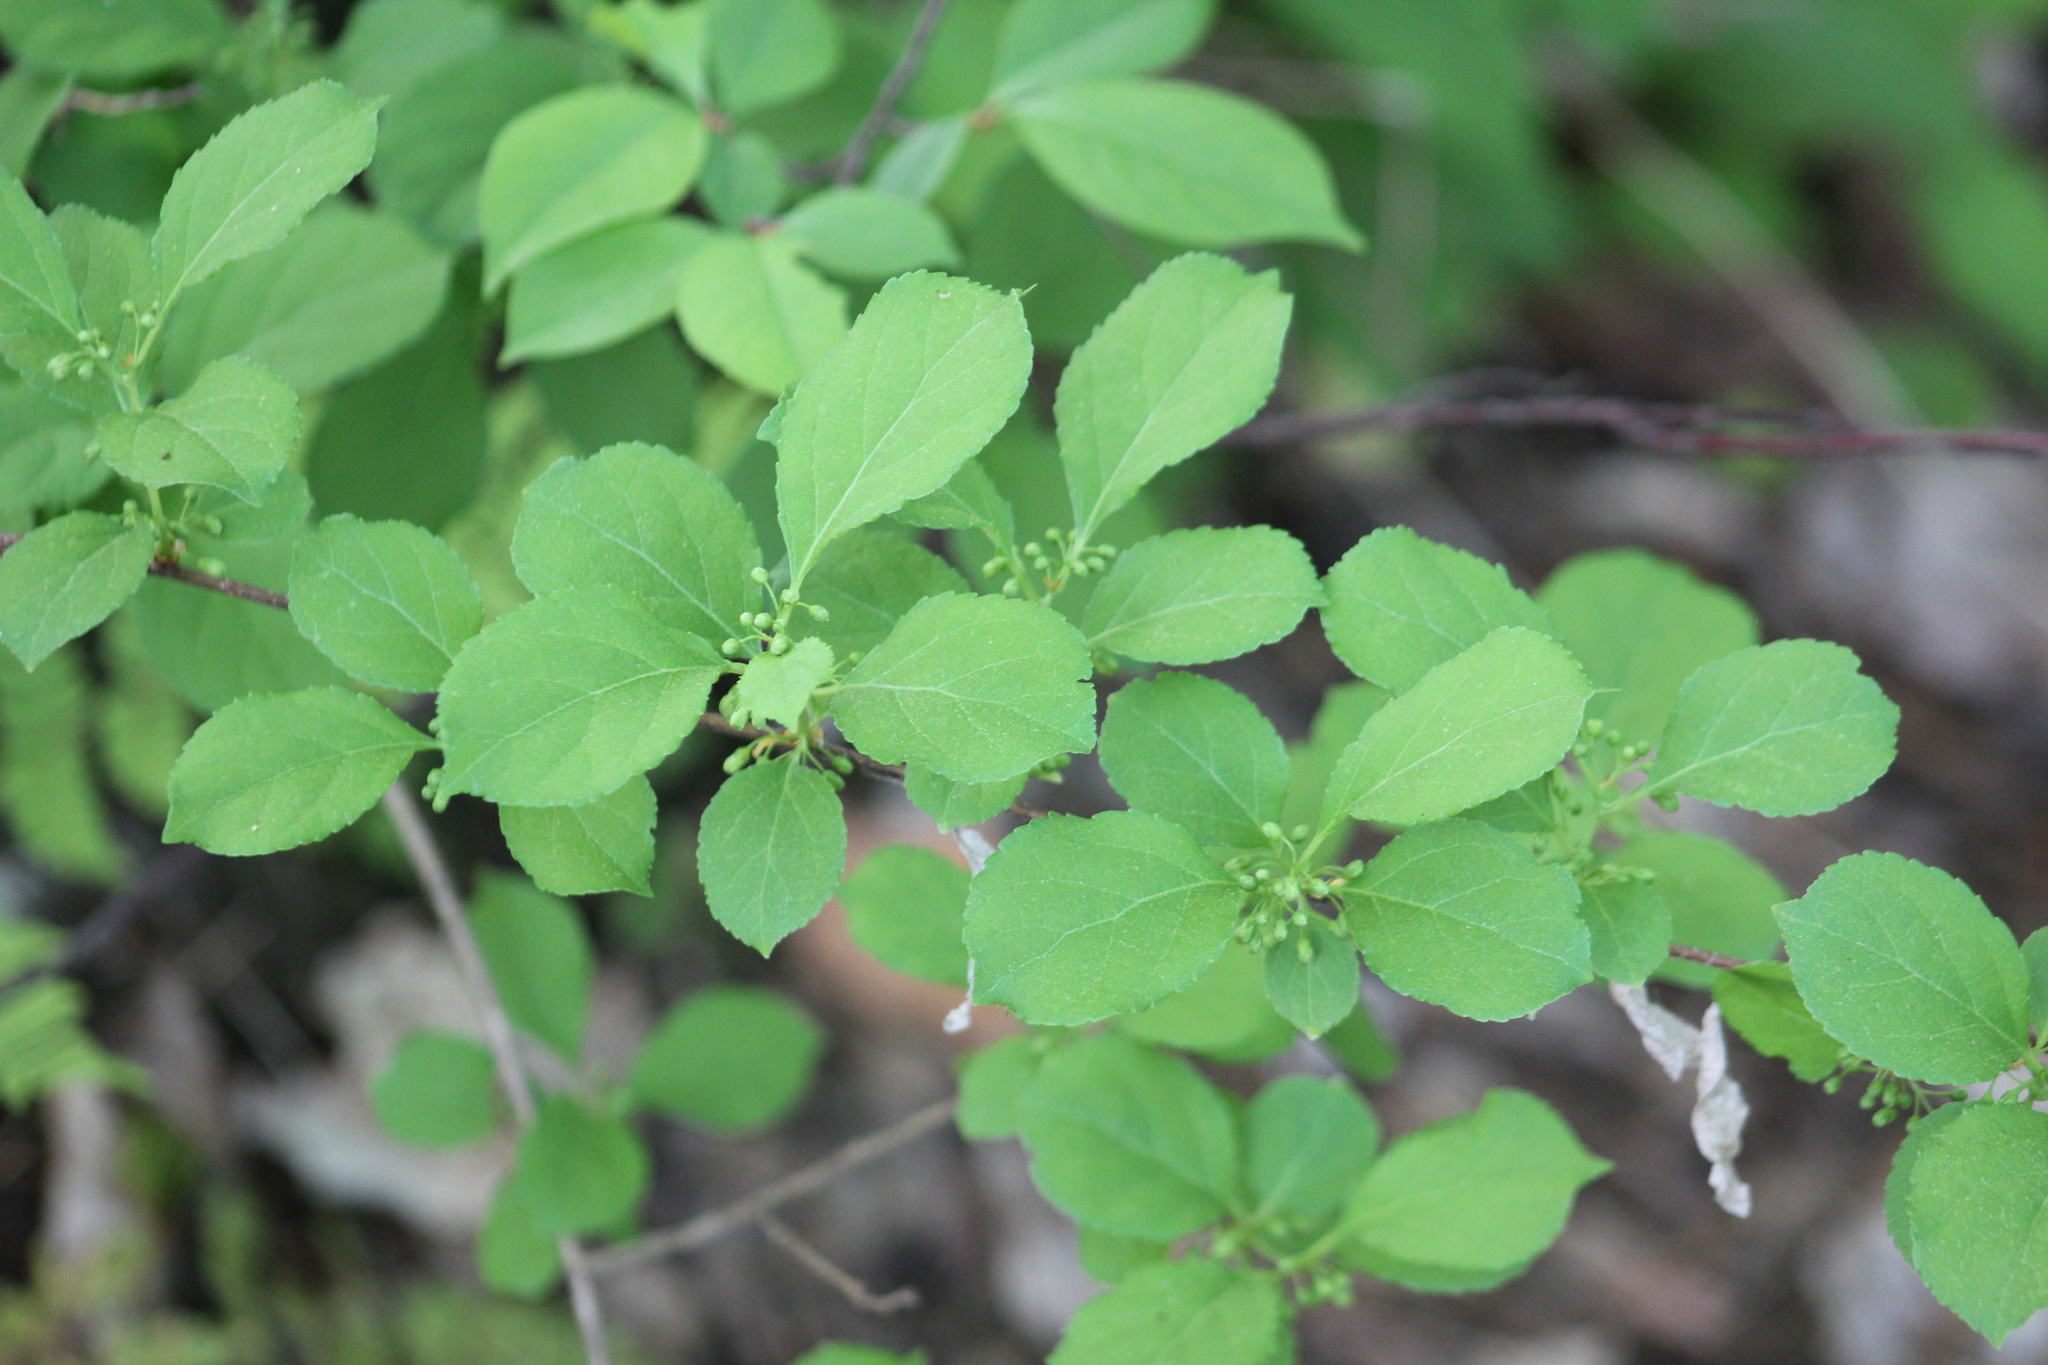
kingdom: Plantae
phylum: Tracheophyta
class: Magnoliopsida
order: Celastrales
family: Celastraceae
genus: Celastrus
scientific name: Celastrus orbiculatus
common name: Oriental bittersweet
